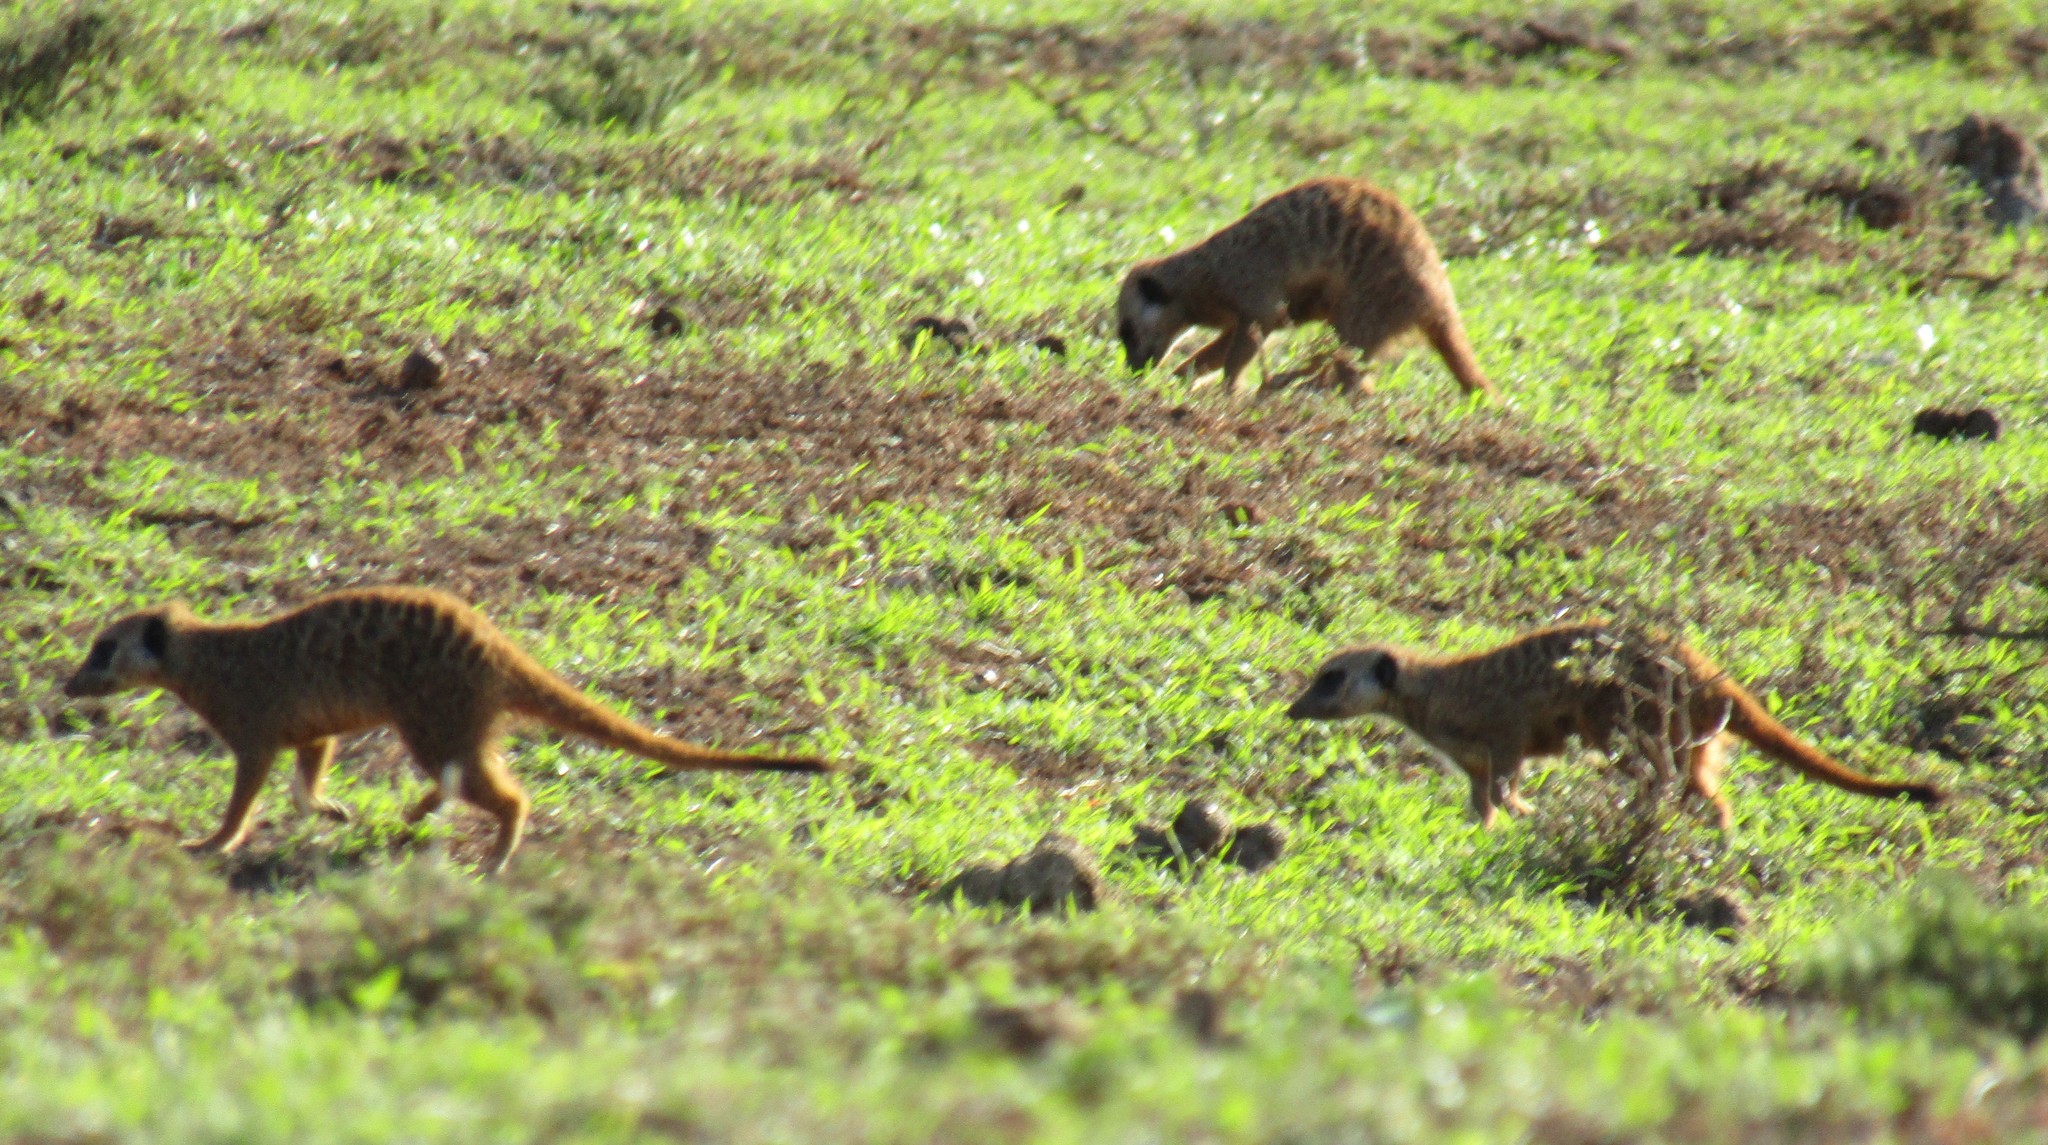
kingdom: Animalia
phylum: Chordata
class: Mammalia
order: Carnivora
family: Herpestidae
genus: Suricata
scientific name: Suricata suricatta
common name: Meerkat
